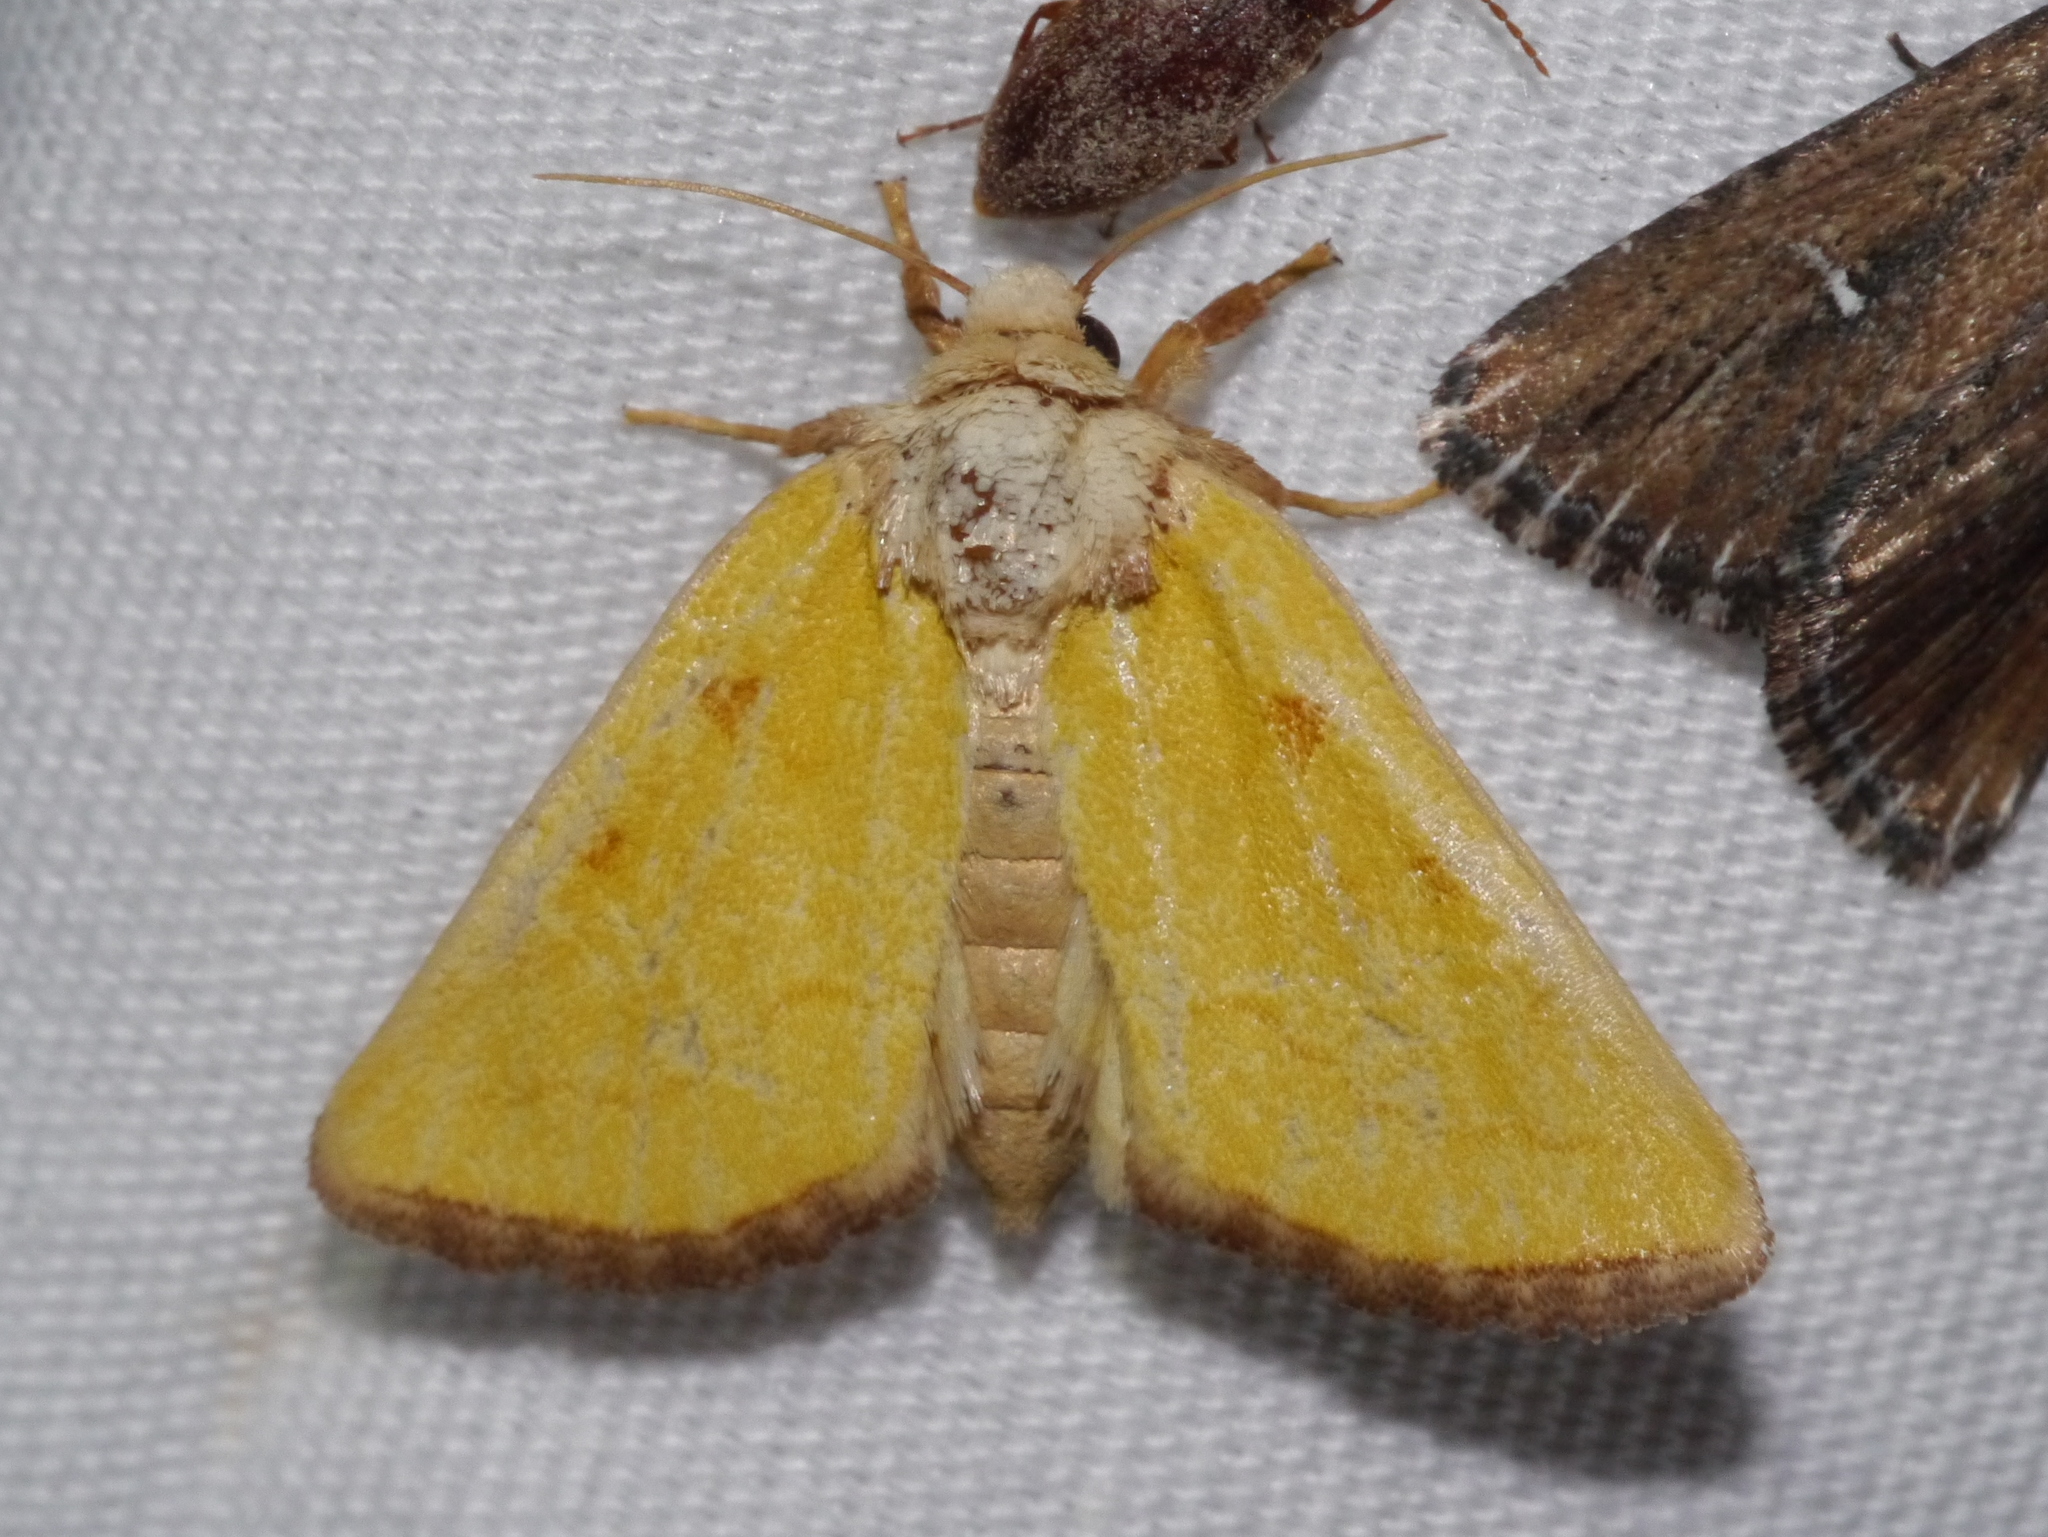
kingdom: Animalia
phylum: Arthropoda
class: Insecta
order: Lepidoptera
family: Noctuidae
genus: Nocloa
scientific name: Nocloa aliaga
